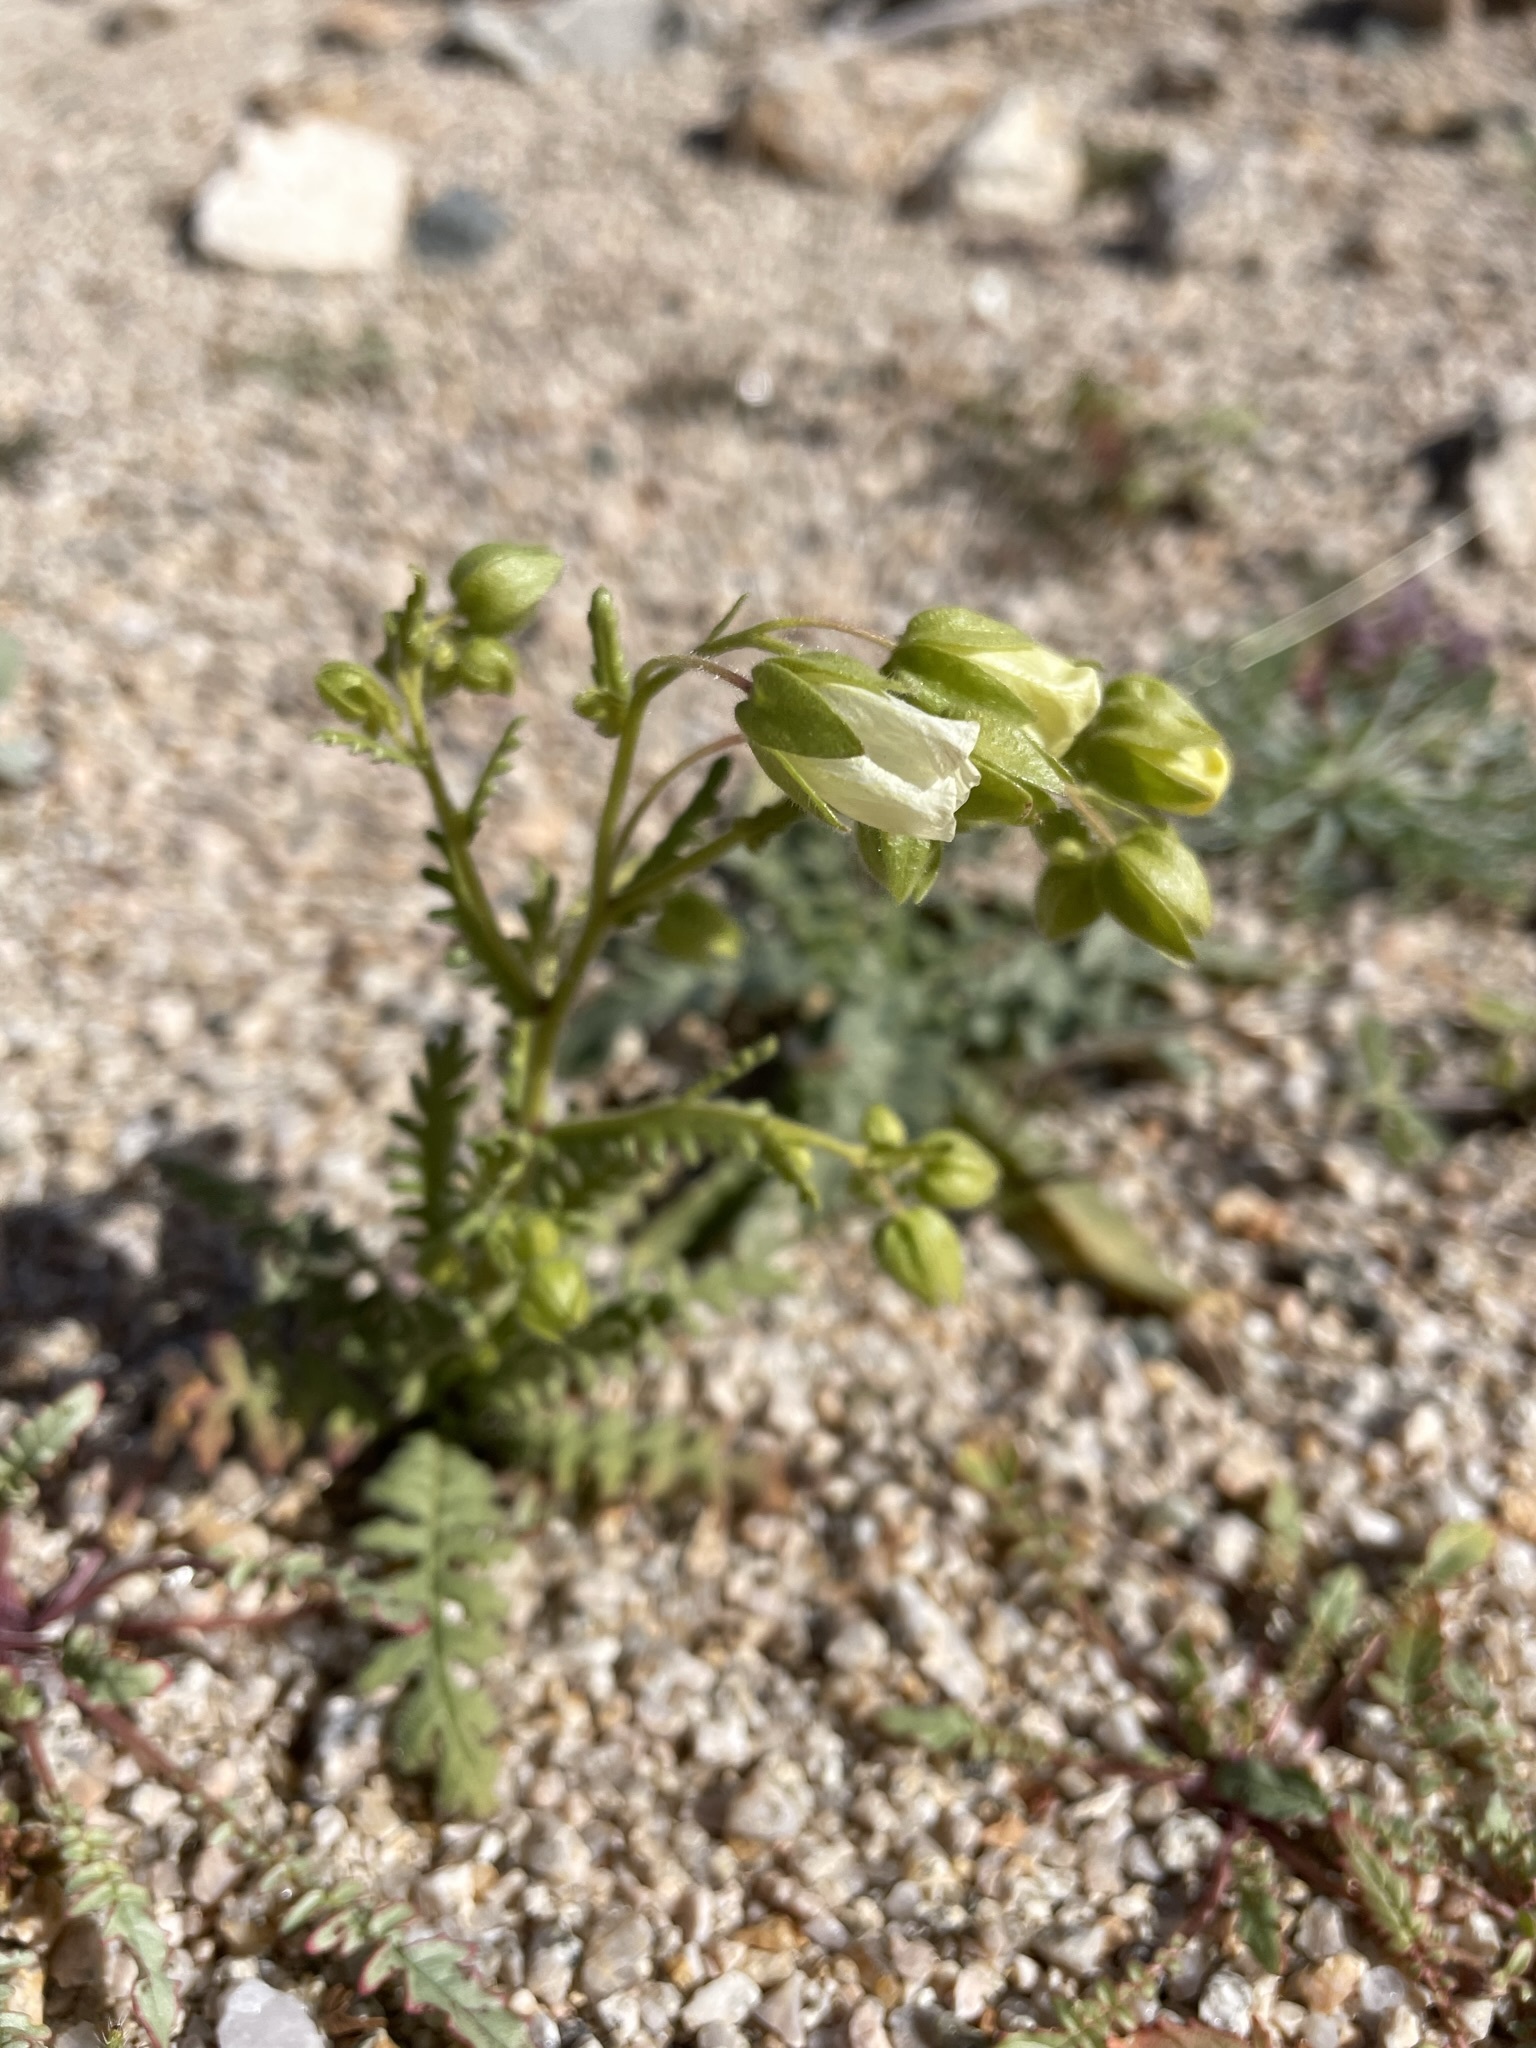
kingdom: Plantae
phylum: Tracheophyta
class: Magnoliopsida
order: Boraginales
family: Hydrophyllaceae
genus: Emmenanthe
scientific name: Emmenanthe penduliflora
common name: Whispering-bells
